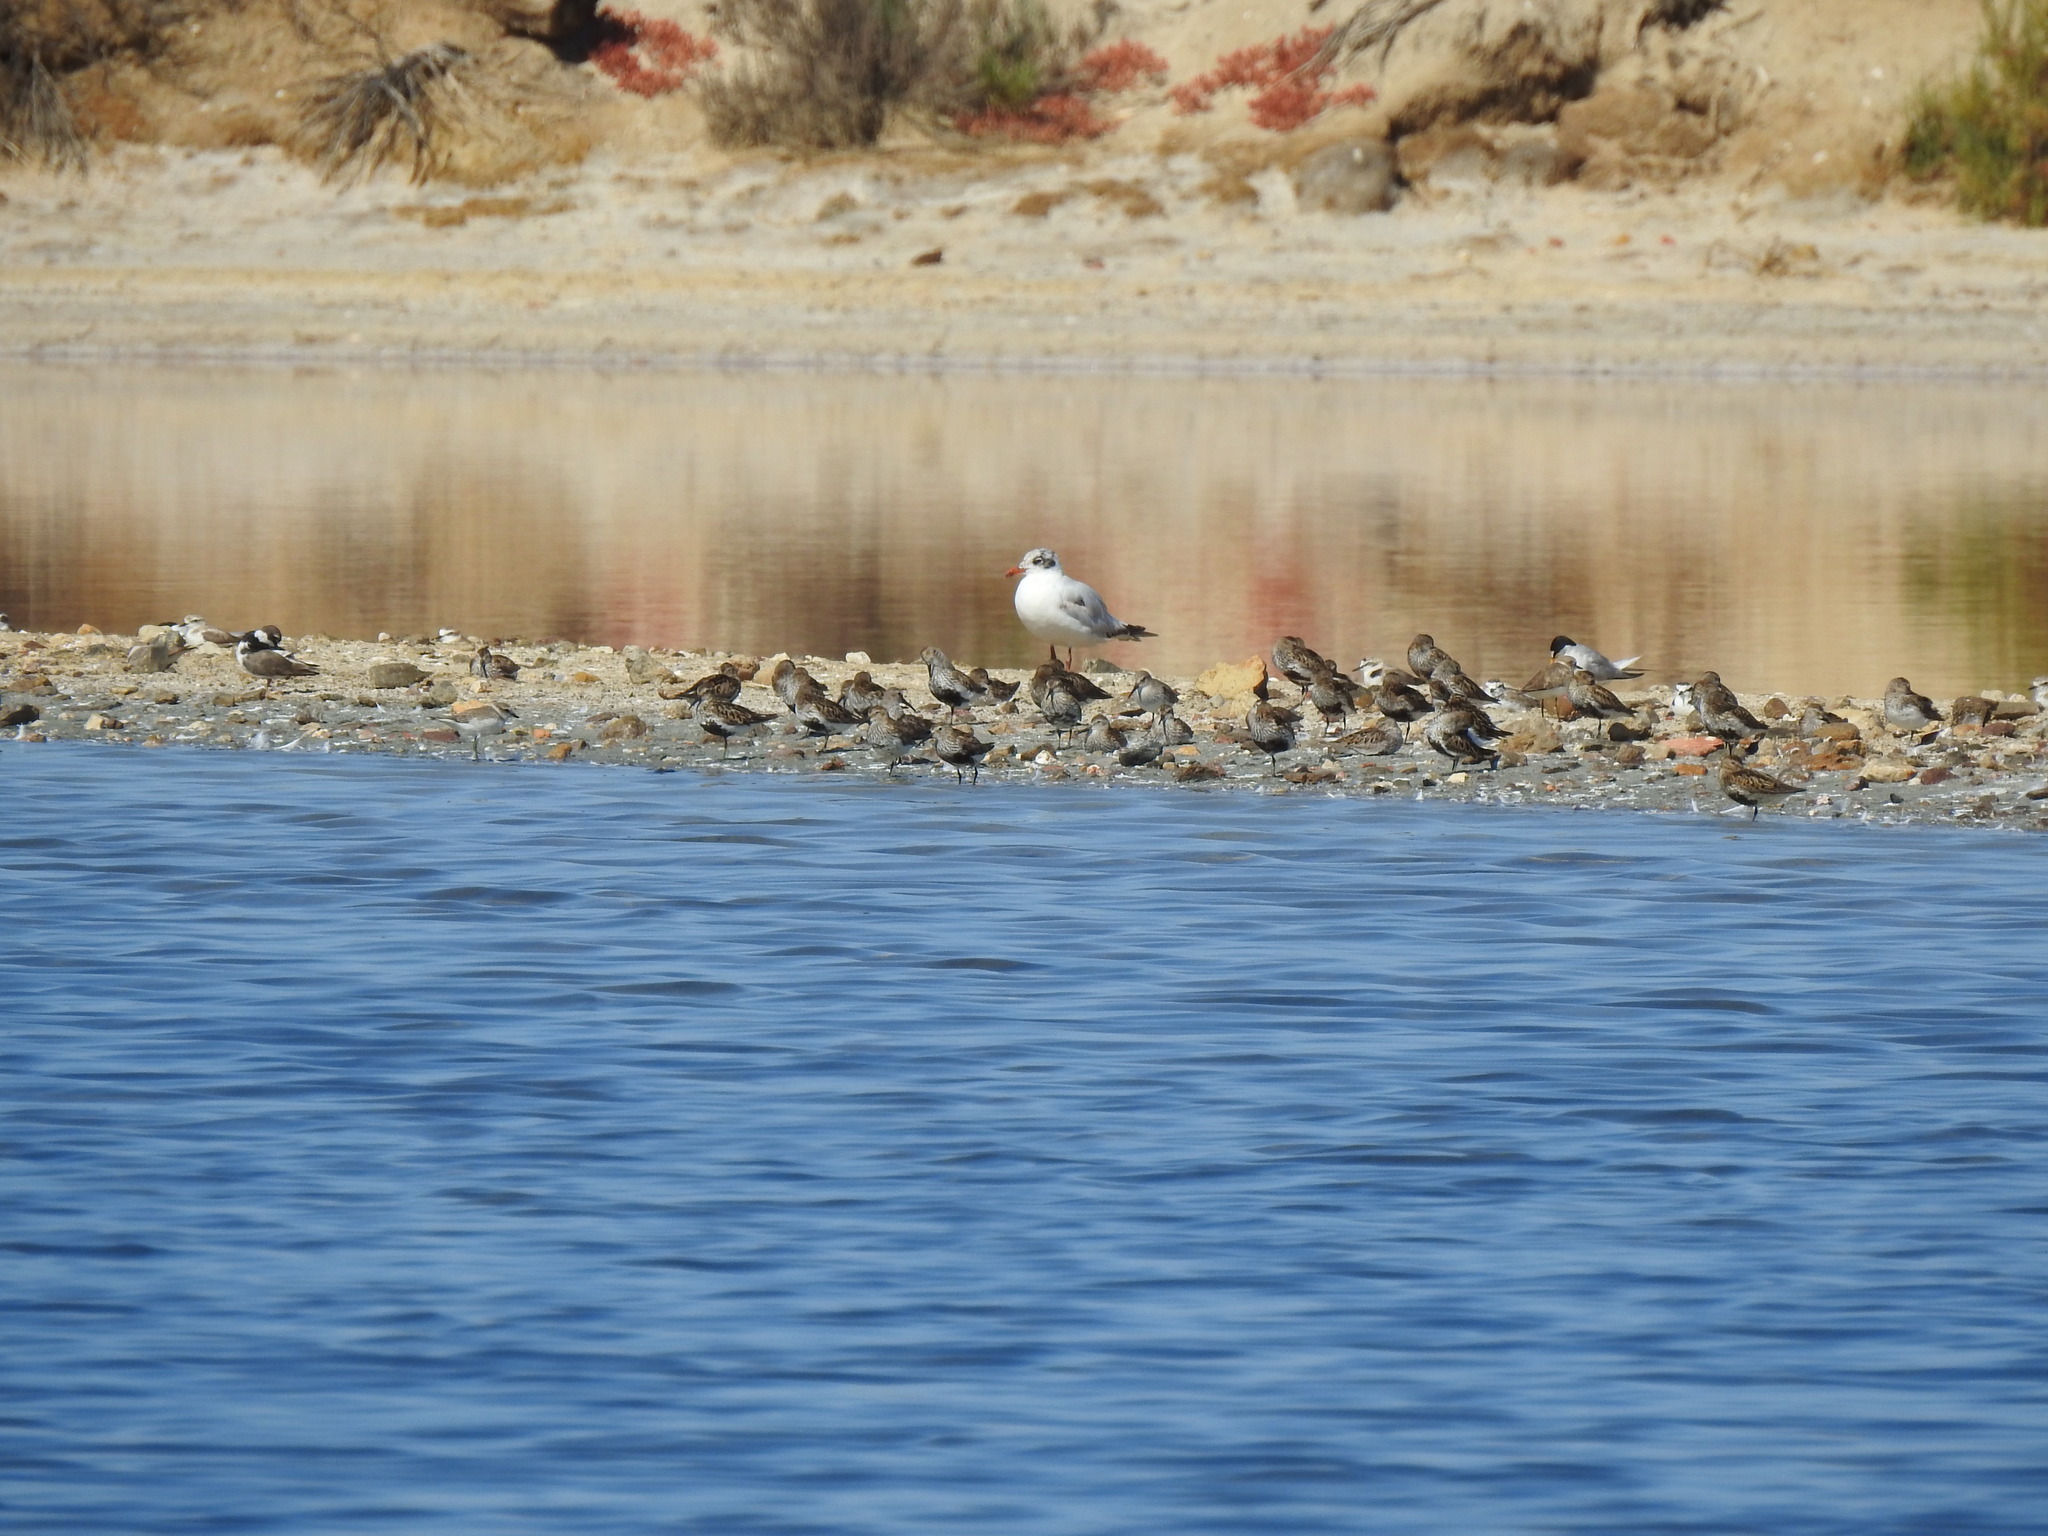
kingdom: Animalia
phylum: Chordata
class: Aves
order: Charadriiformes
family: Scolopacidae
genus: Calidris
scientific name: Calidris alpina
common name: Dunlin
